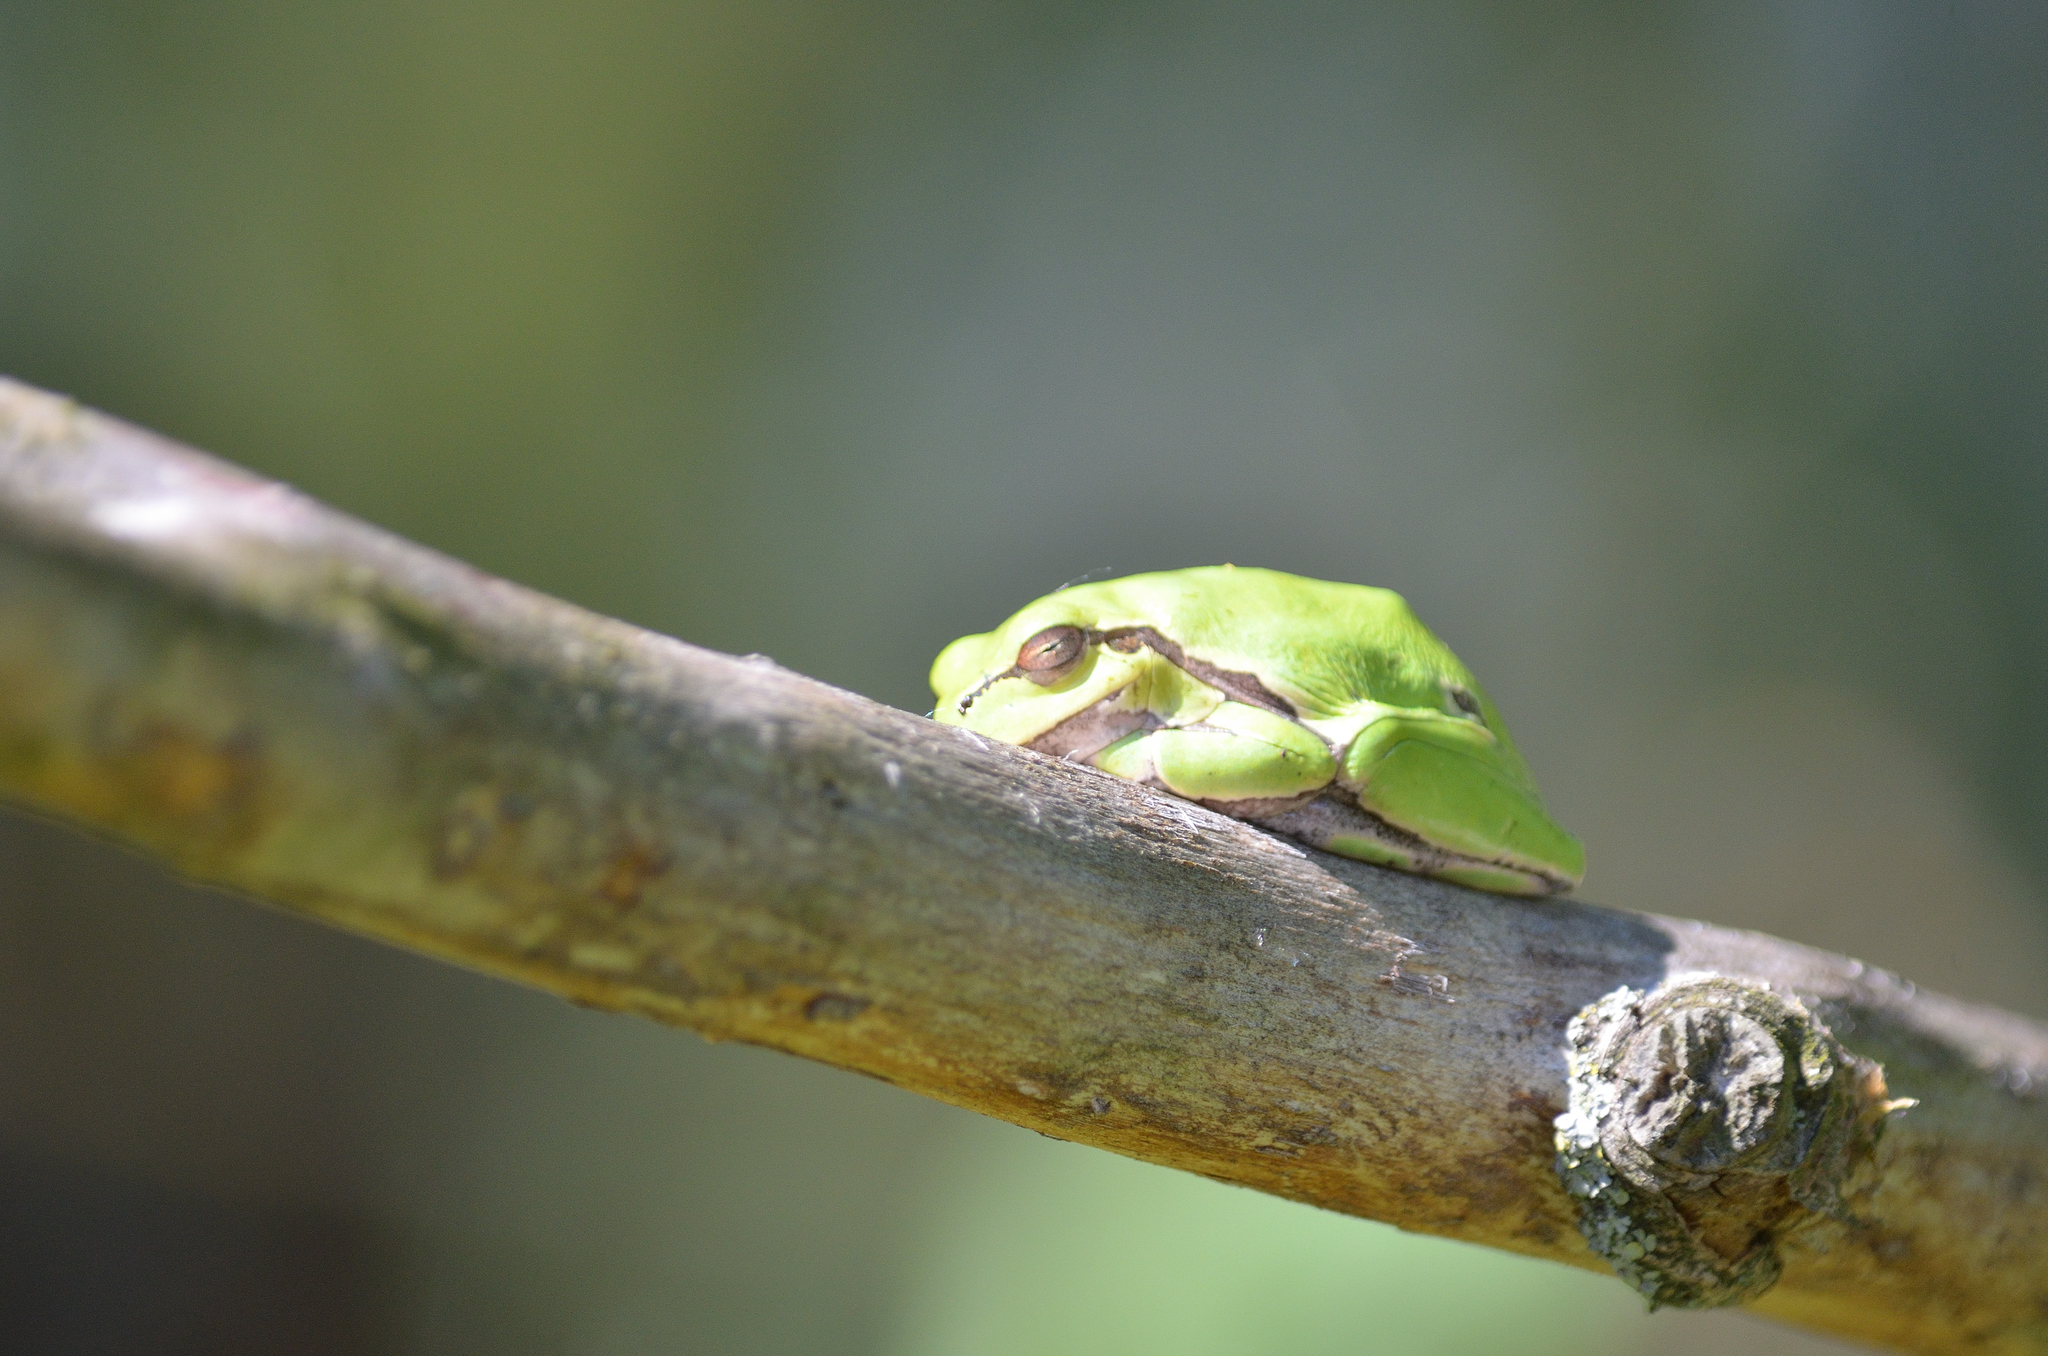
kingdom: Animalia
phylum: Chordata
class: Amphibia
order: Anura
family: Hylidae
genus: Hyla
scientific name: Hyla orientalis
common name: Caucasian treefrog
